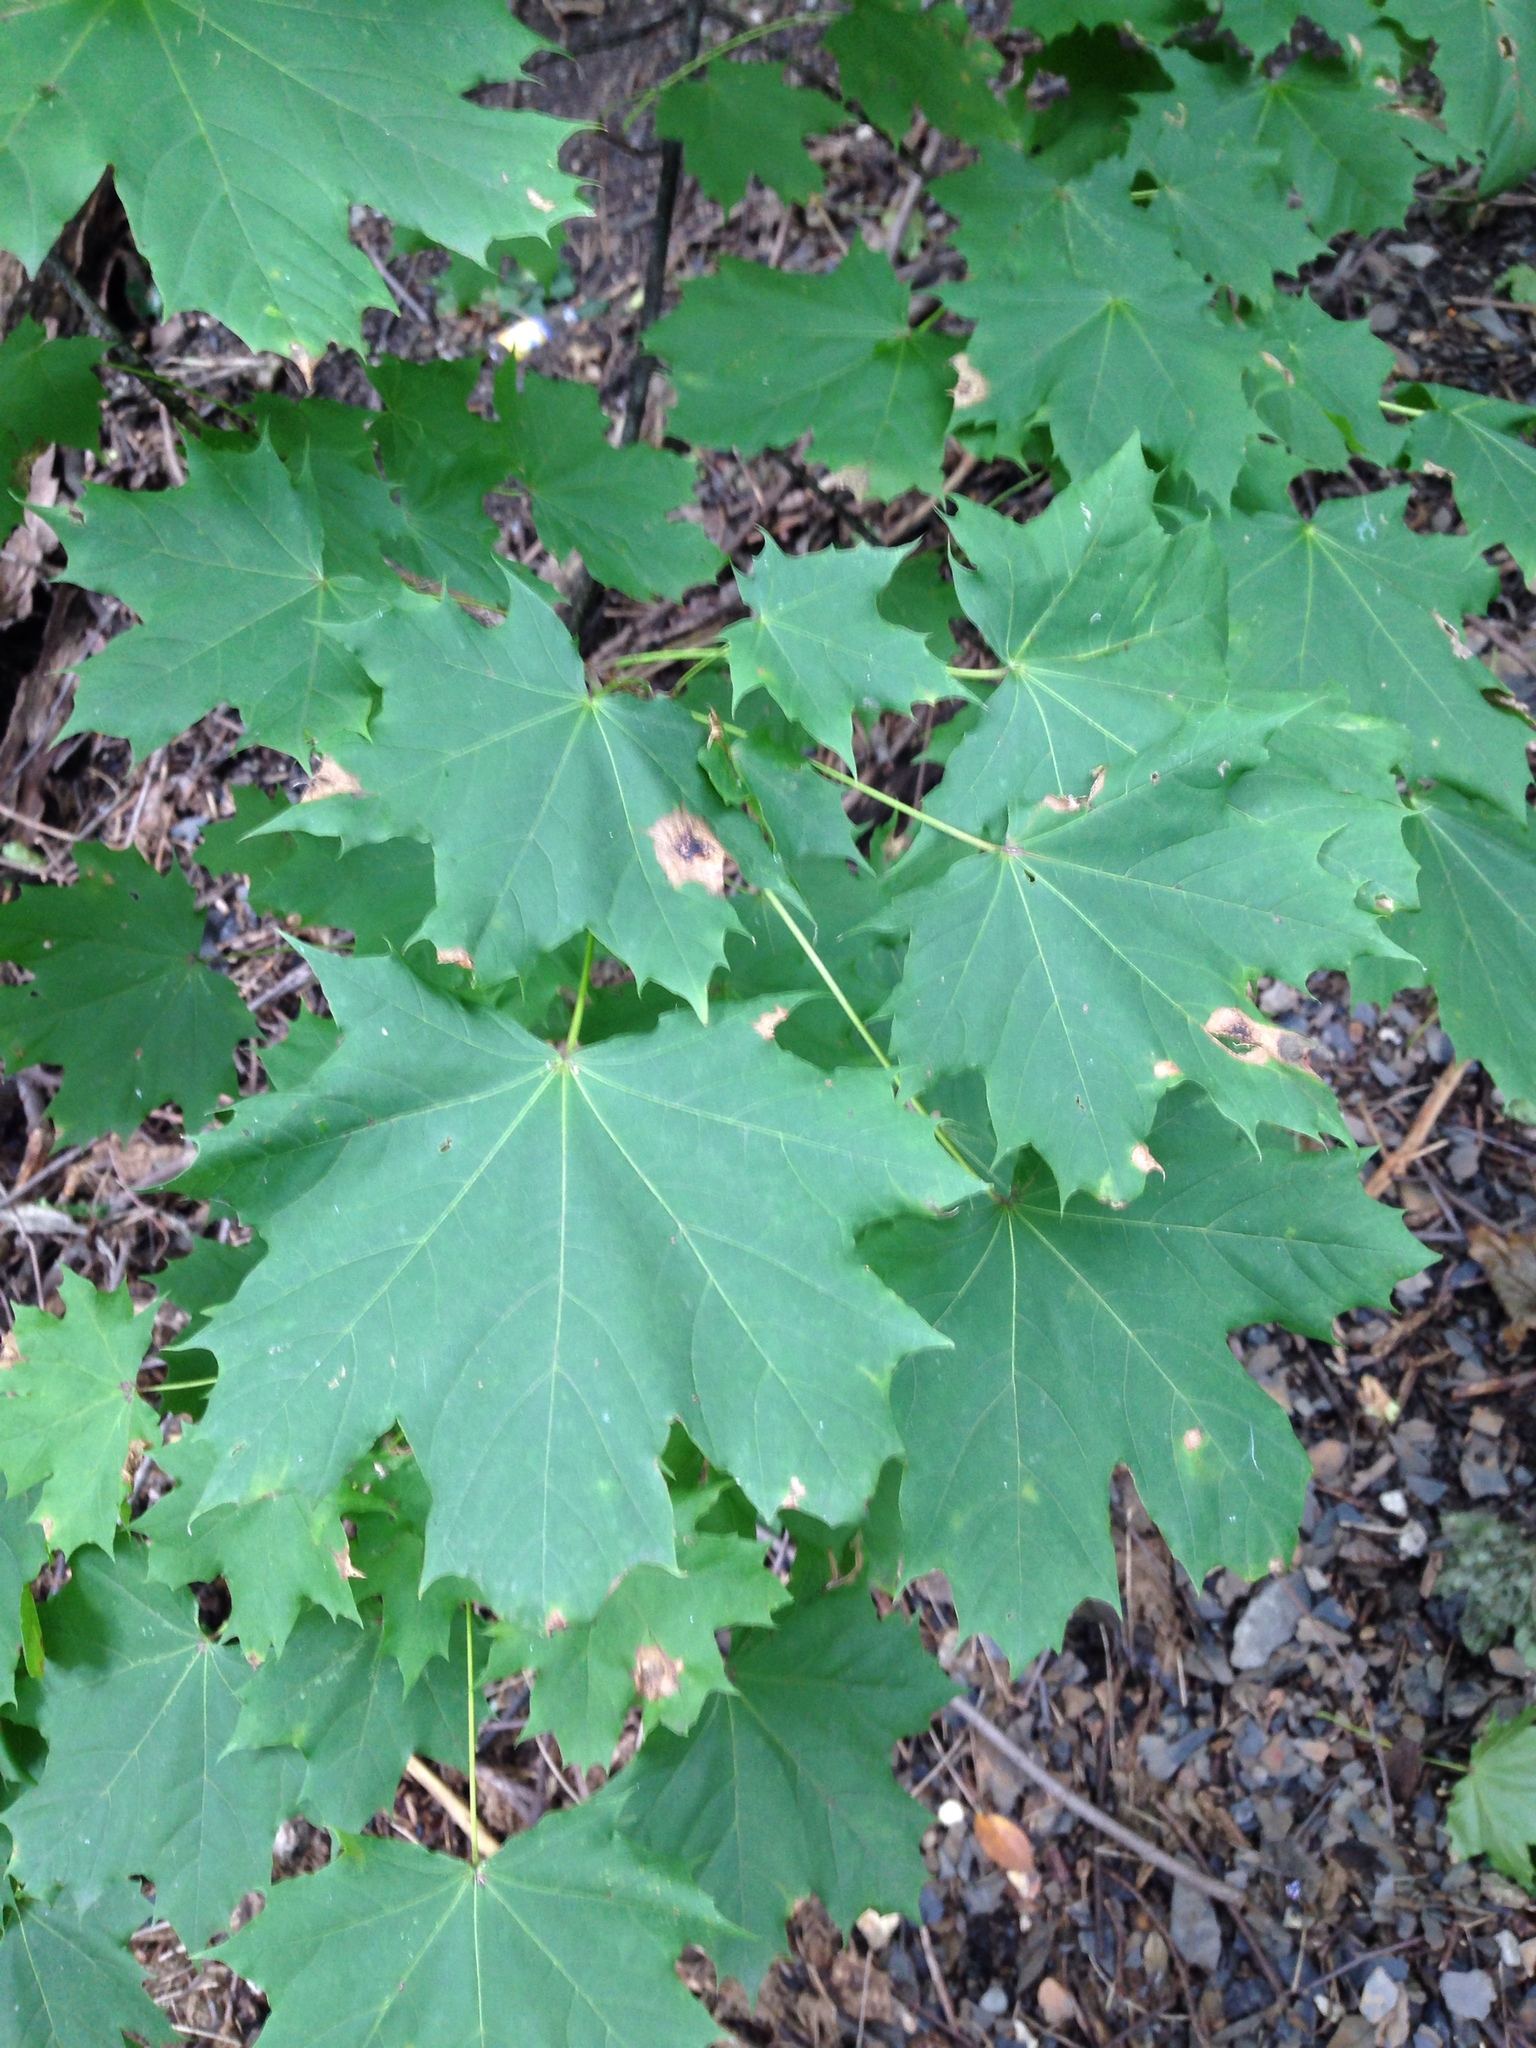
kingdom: Plantae
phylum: Tracheophyta
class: Magnoliopsida
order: Sapindales
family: Sapindaceae
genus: Acer
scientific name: Acer platanoides
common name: Norway maple
